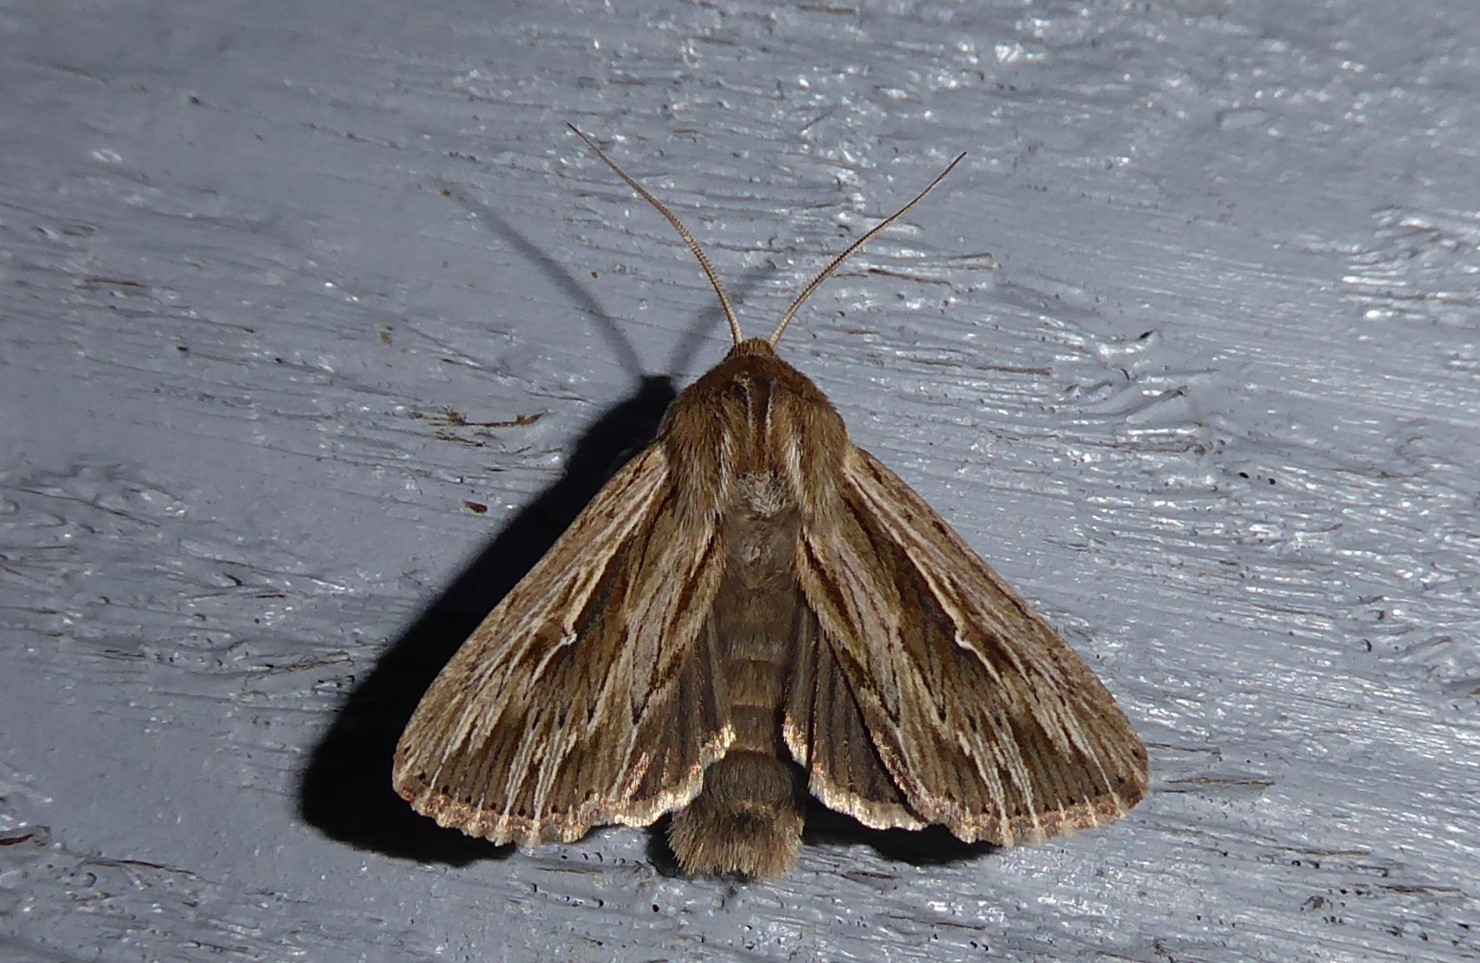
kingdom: Animalia
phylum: Arthropoda
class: Insecta
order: Lepidoptera
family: Noctuidae
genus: Persectania
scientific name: Persectania aversa
